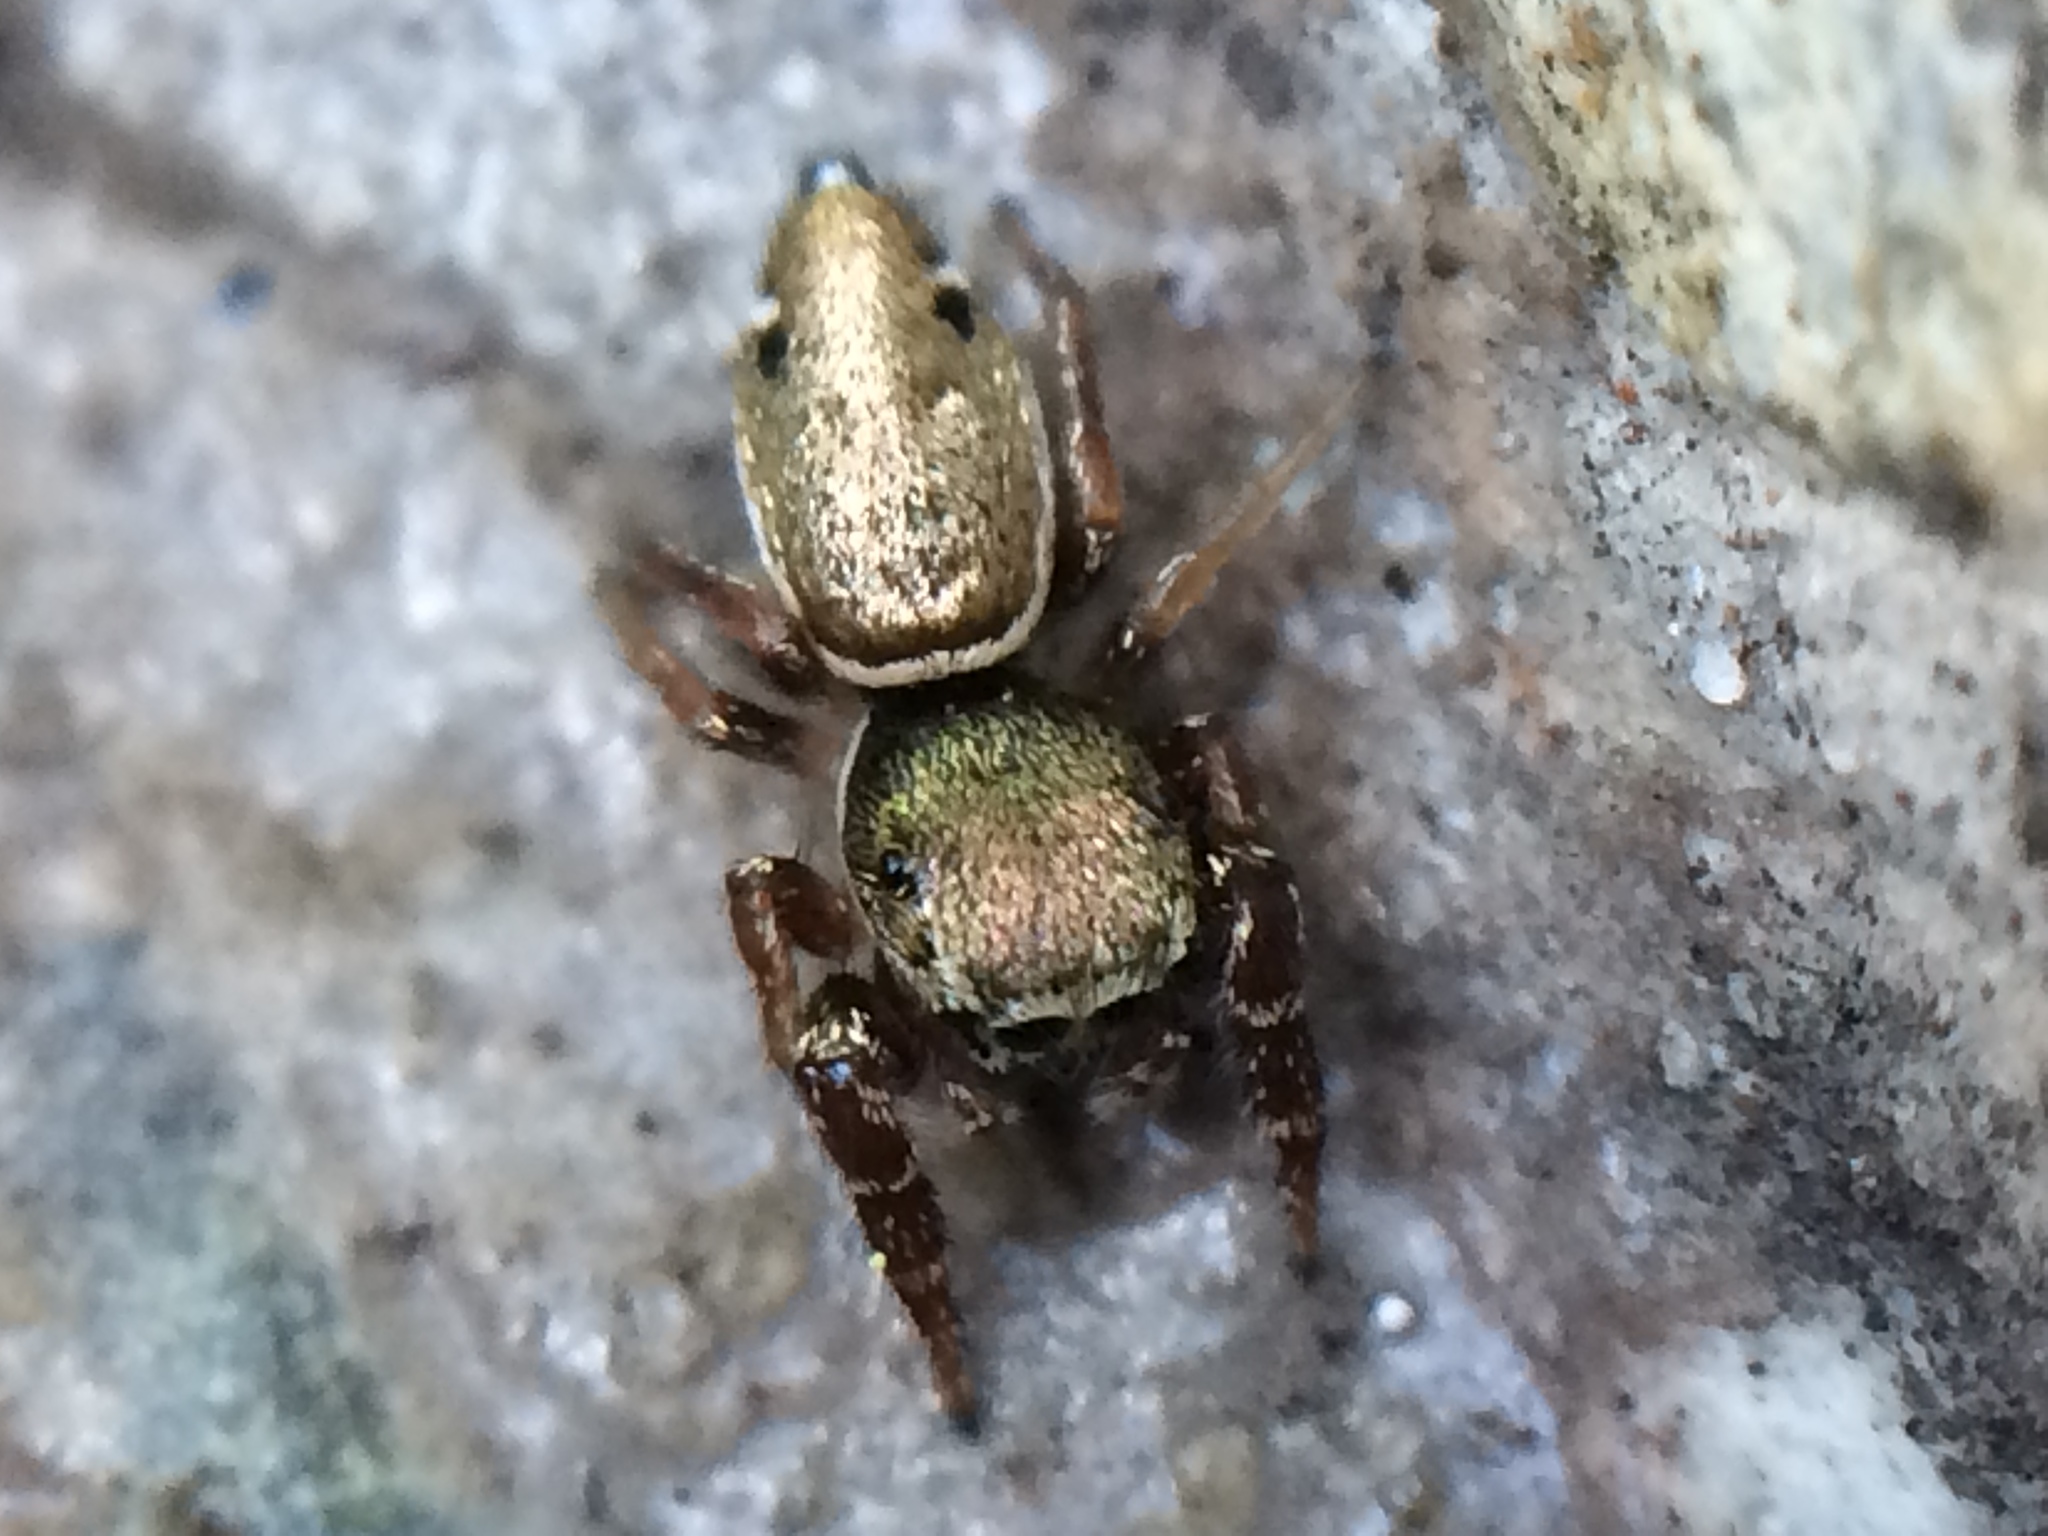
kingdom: Animalia
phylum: Arthropoda
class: Arachnida
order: Araneae
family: Salticidae
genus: Sassacus
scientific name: Sassacus vitis
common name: Jumping spiders
